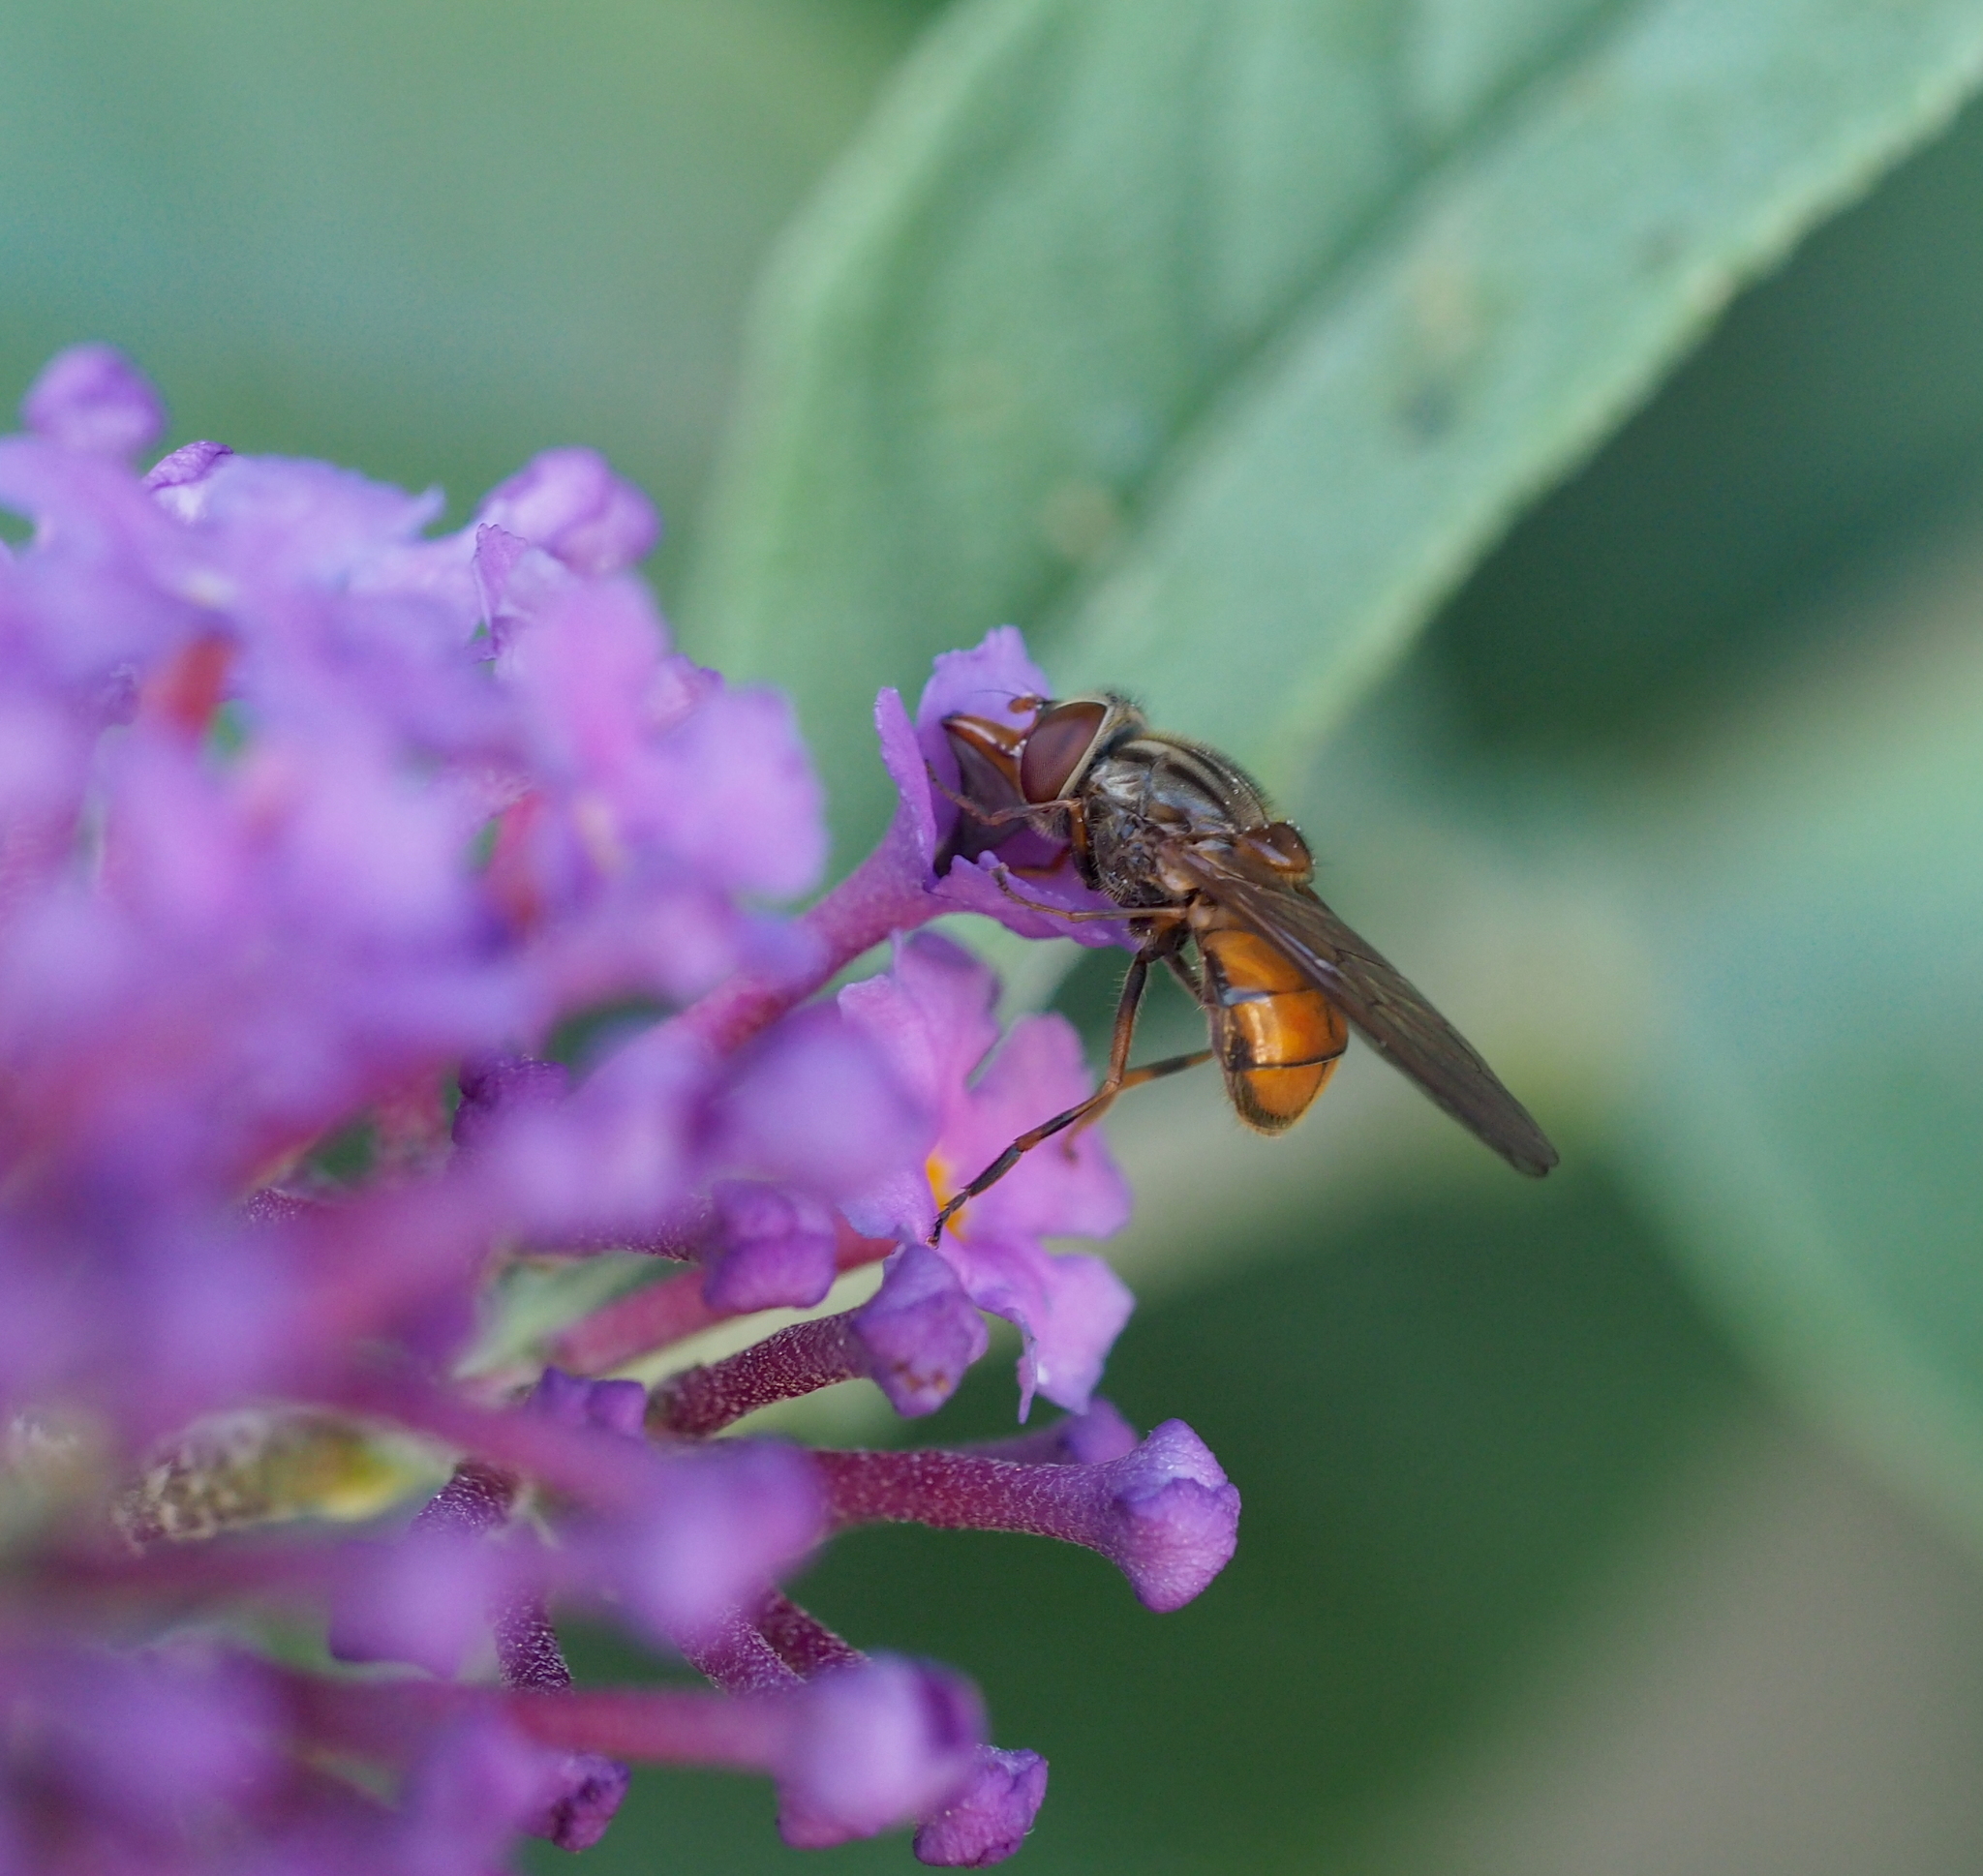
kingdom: Animalia
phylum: Arthropoda
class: Insecta
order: Diptera
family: Syrphidae
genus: Rhingia
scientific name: Rhingia campestris
